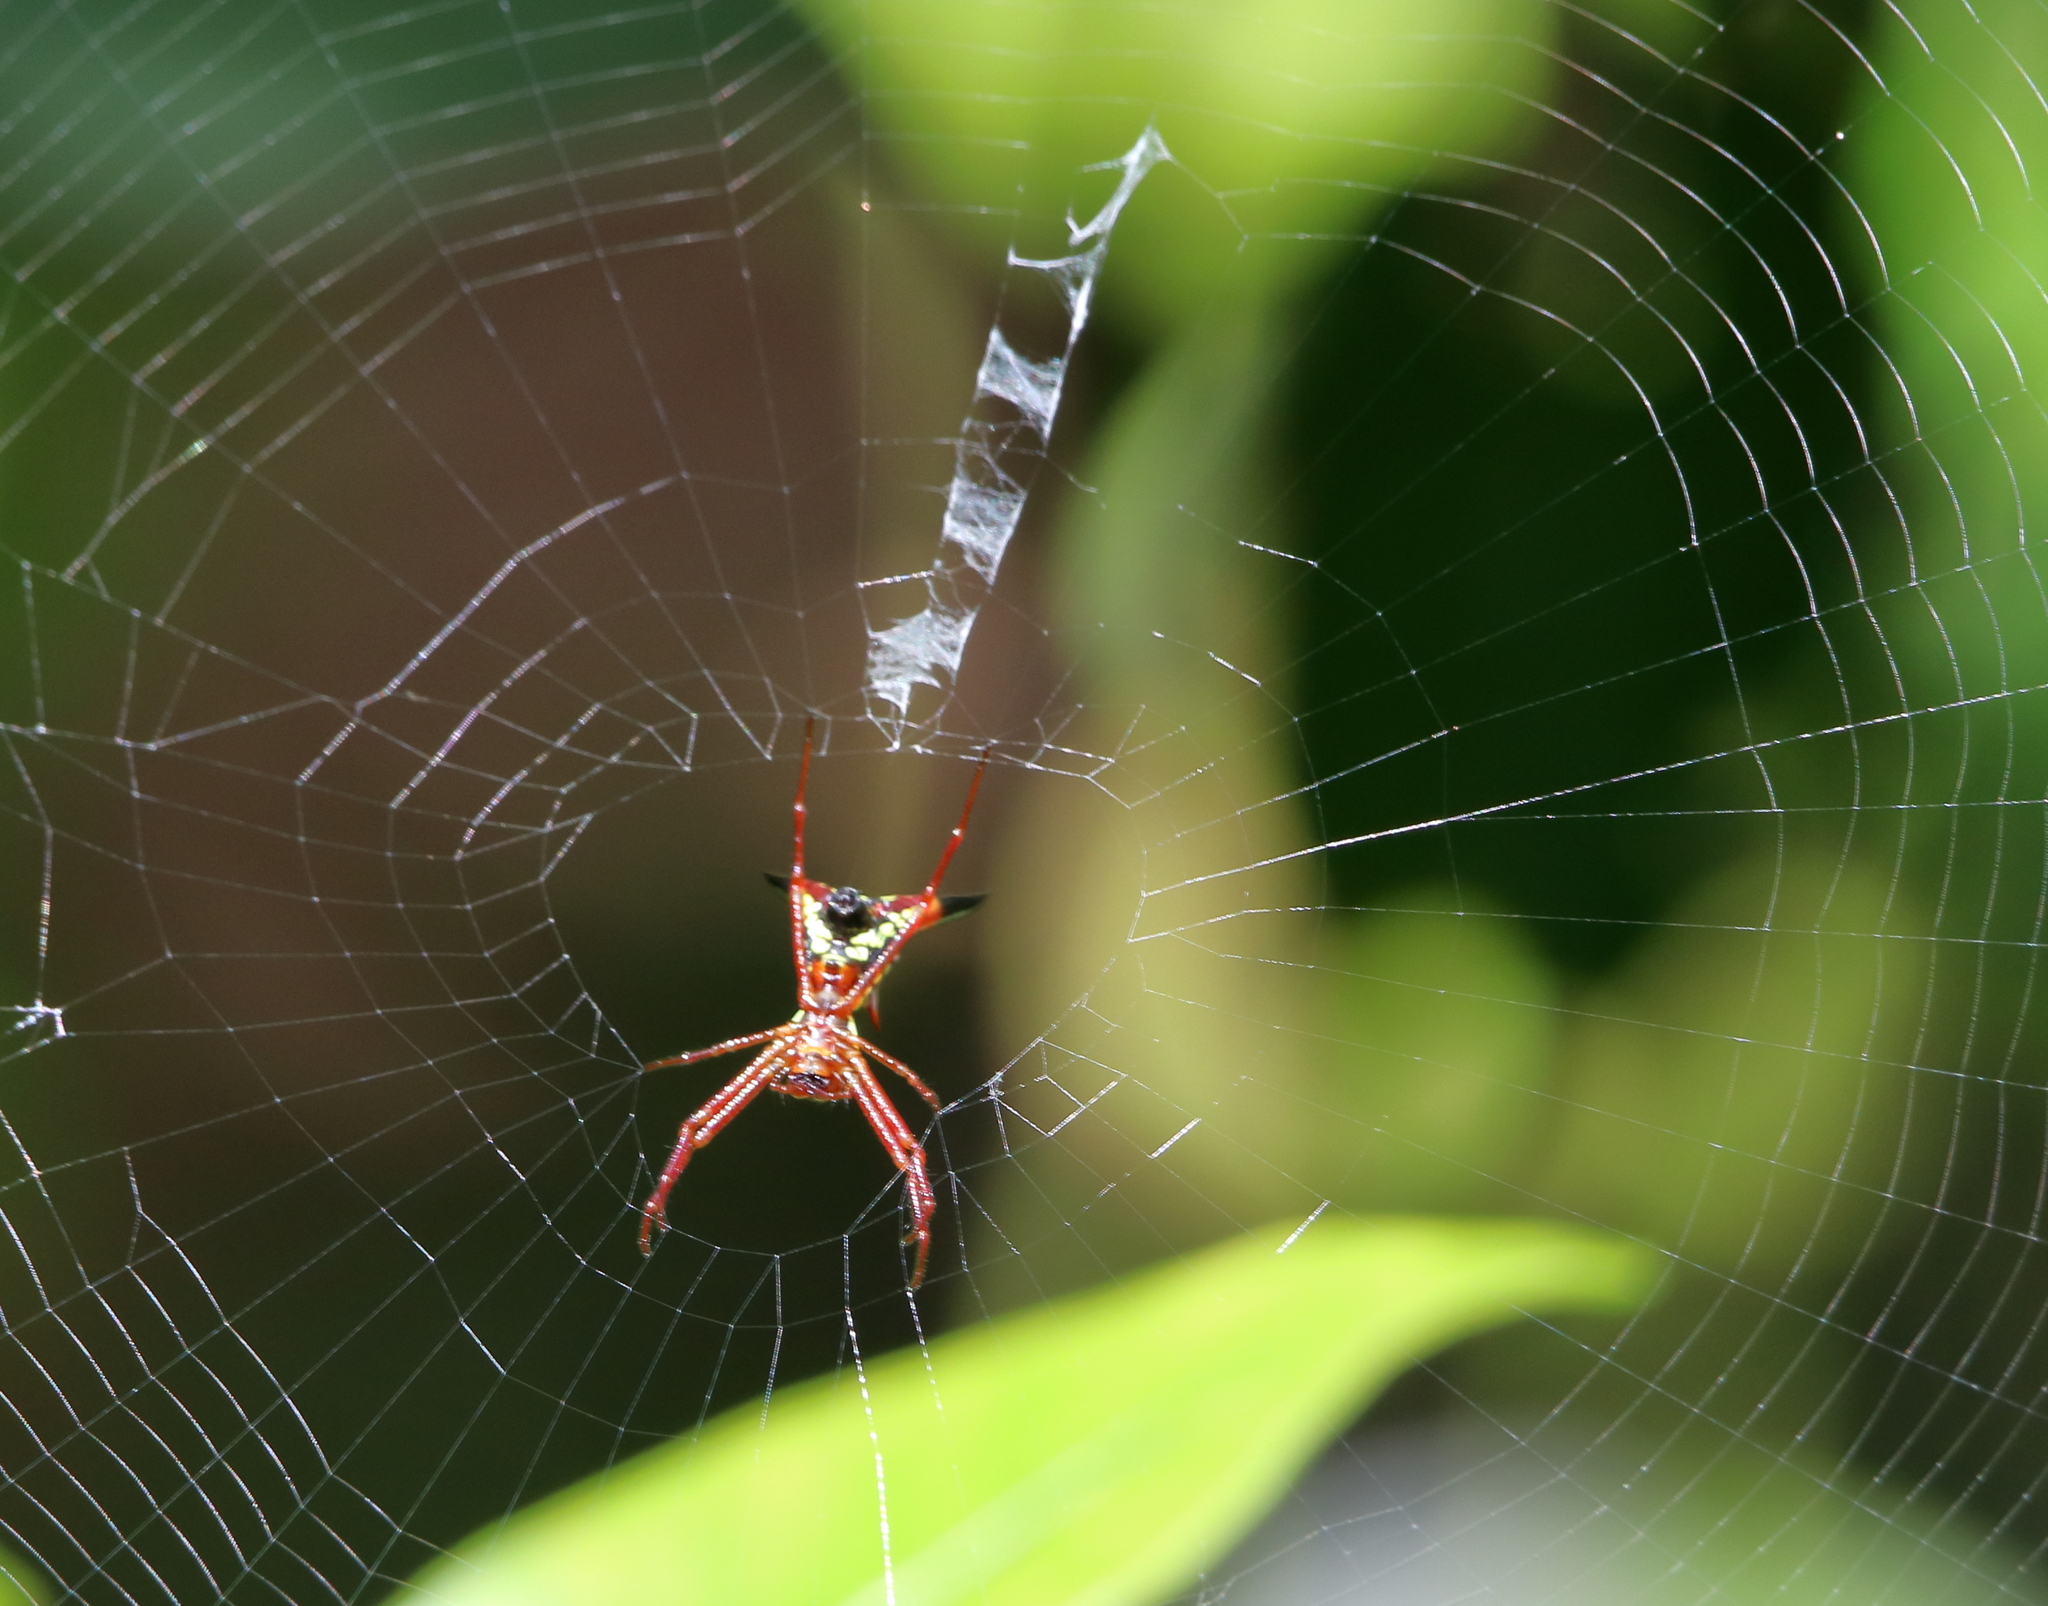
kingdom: Animalia
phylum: Arthropoda
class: Arachnida
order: Araneae
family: Araneidae
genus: Micrathena
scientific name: Micrathena sagittata
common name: Orb weavers
